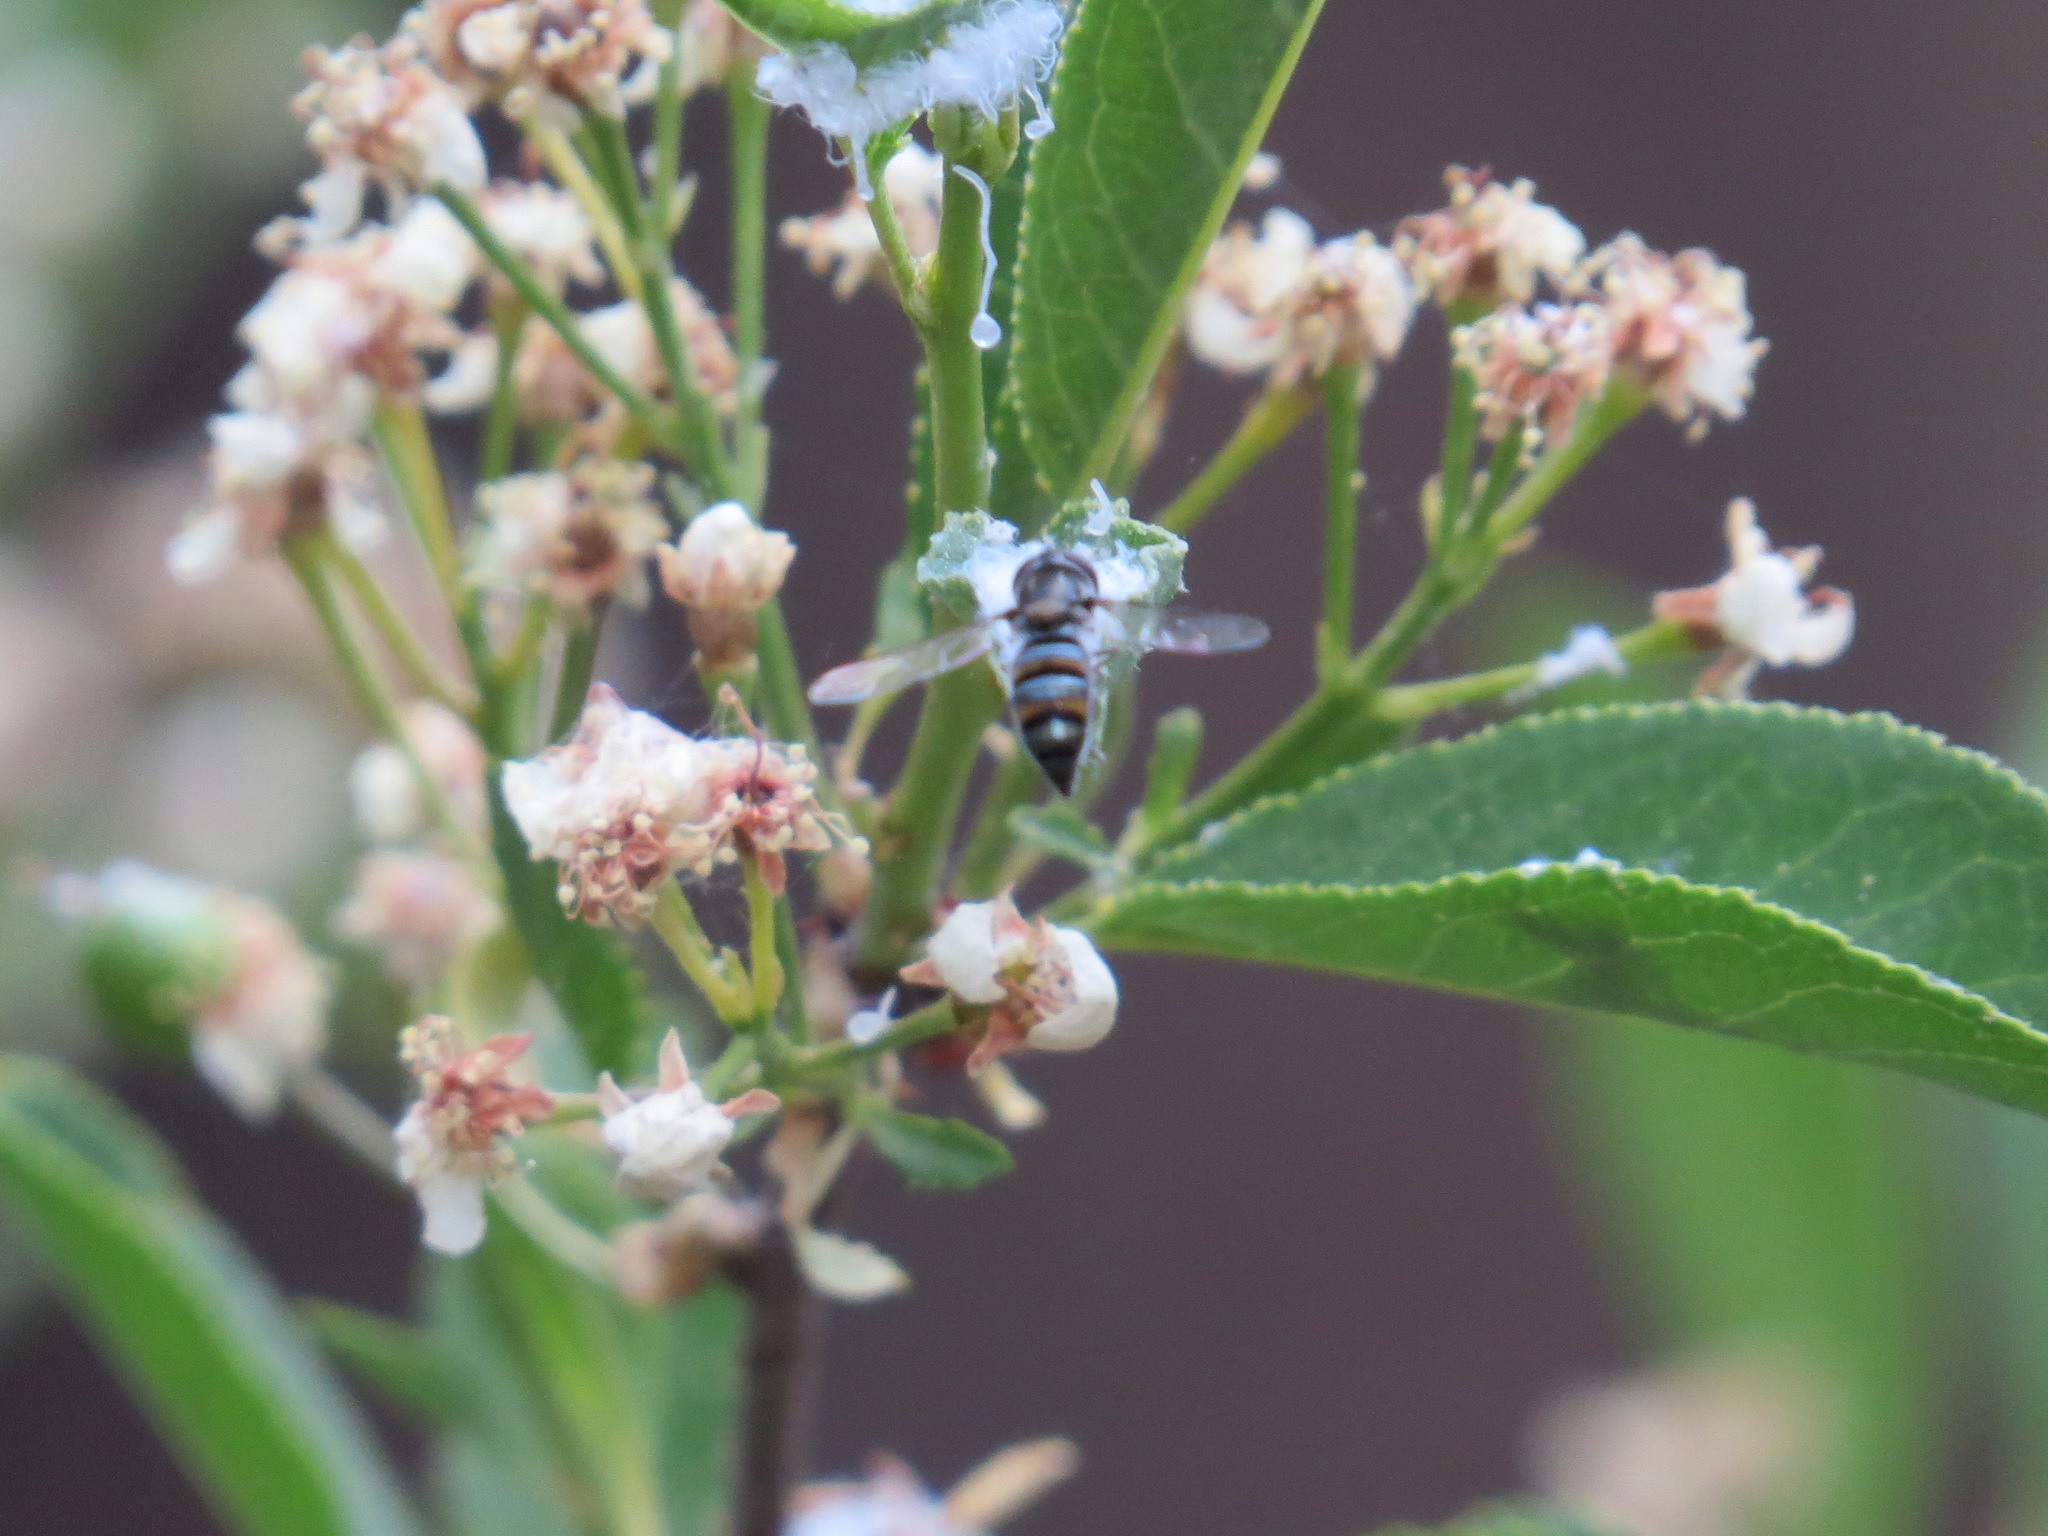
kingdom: Animalia
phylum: Arthropoda
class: Insecta
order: Diptera
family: Syrphidae
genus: Pseudoscaeva
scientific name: Pseudoscaeva diversifasciata
